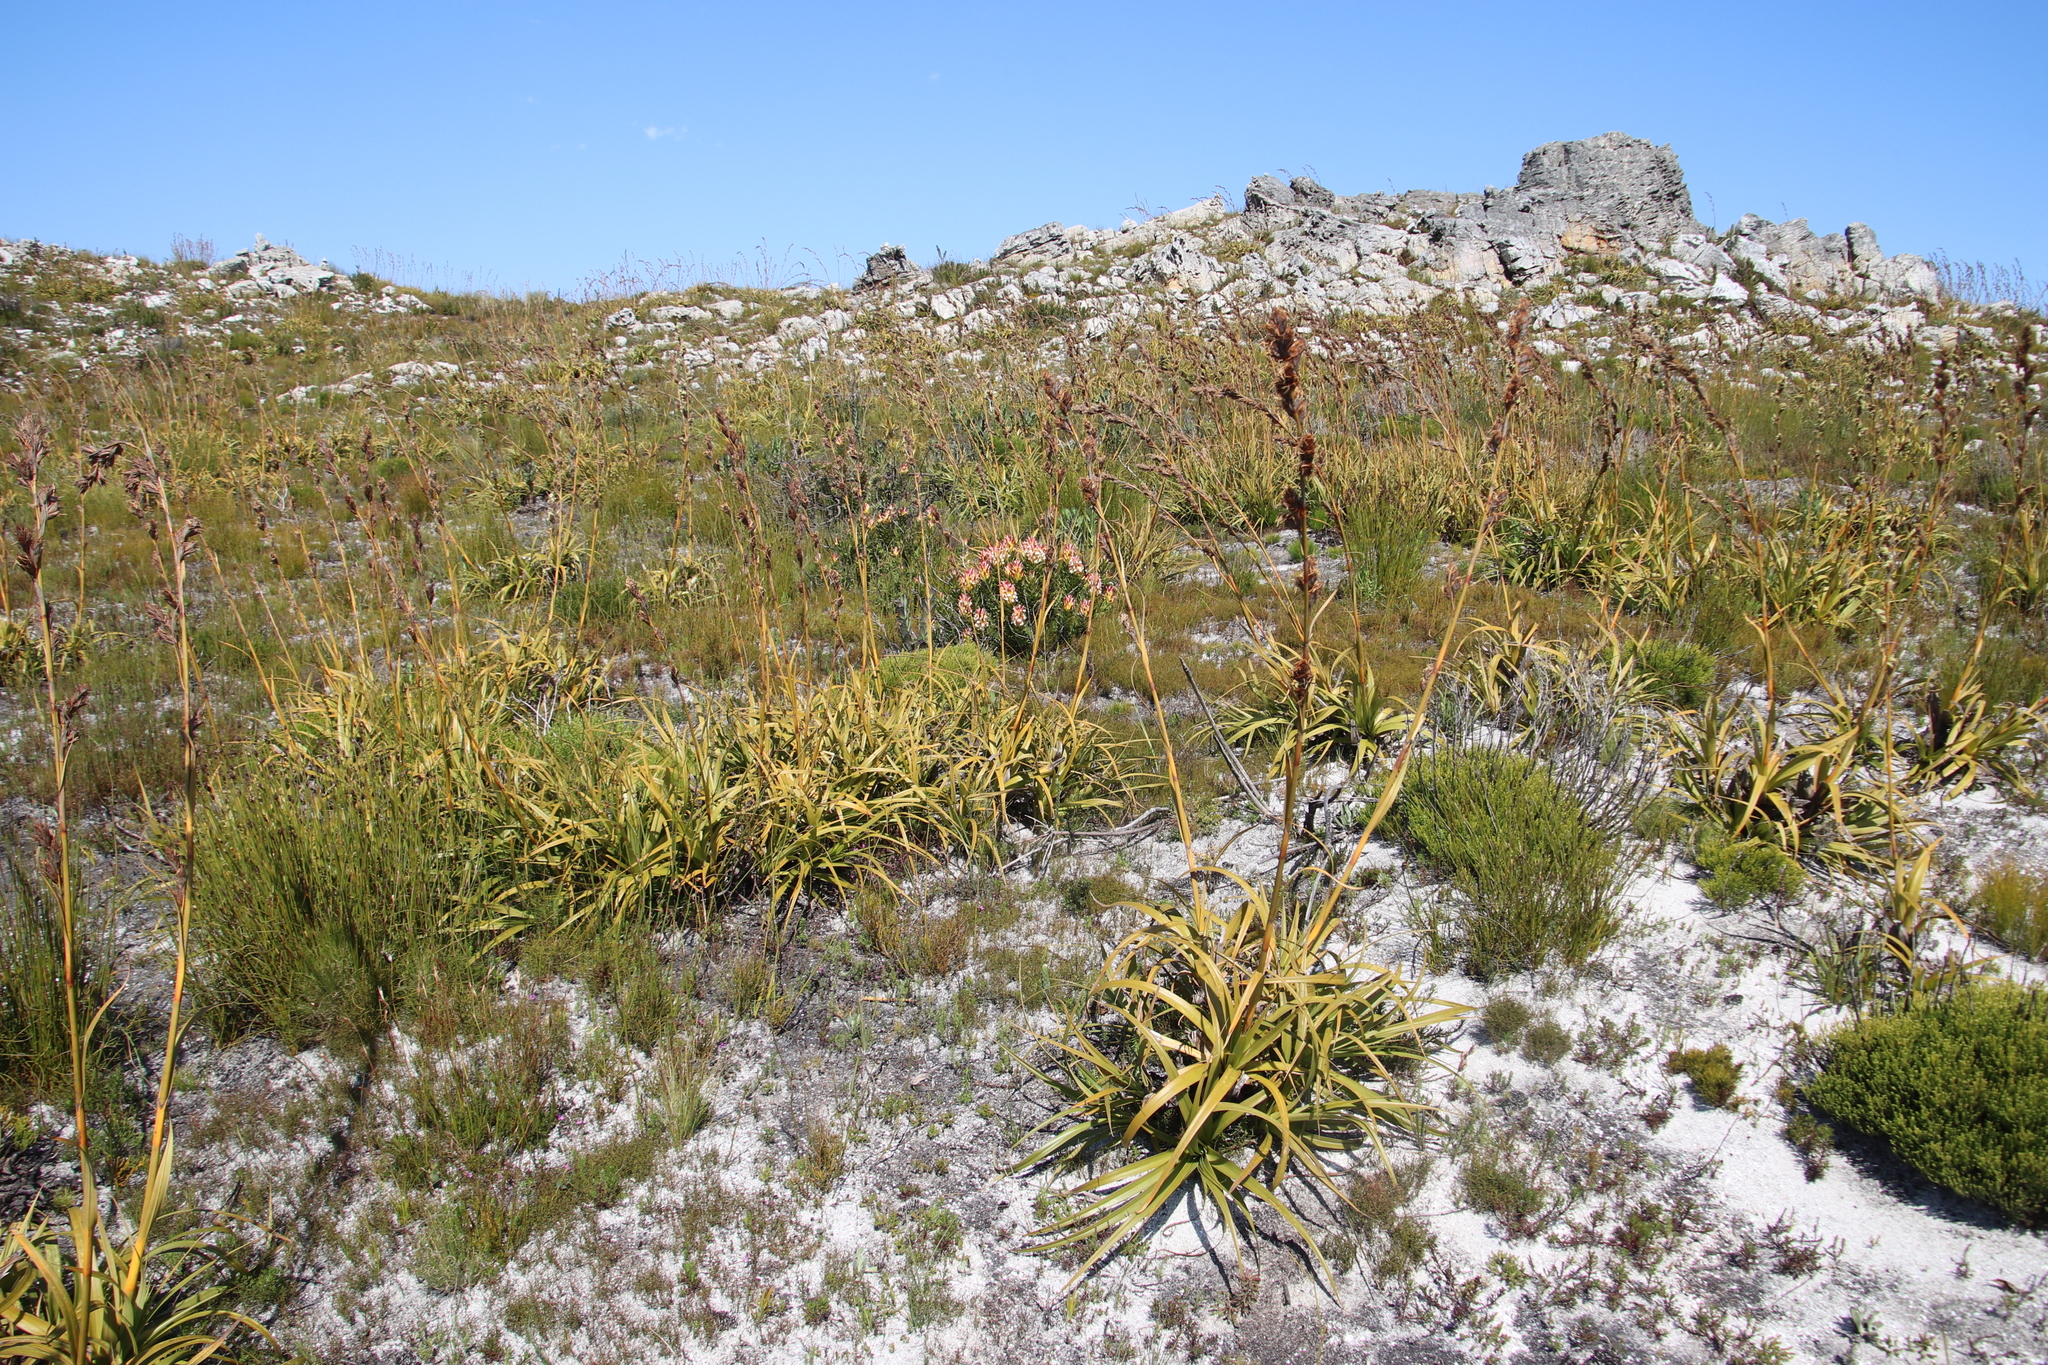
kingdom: Plantae
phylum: Tracheophyta
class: Magnoliopsida
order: Proteales
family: Proteaceae
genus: Mimetes
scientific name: Mimetes cucullatus
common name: Common pagoda
